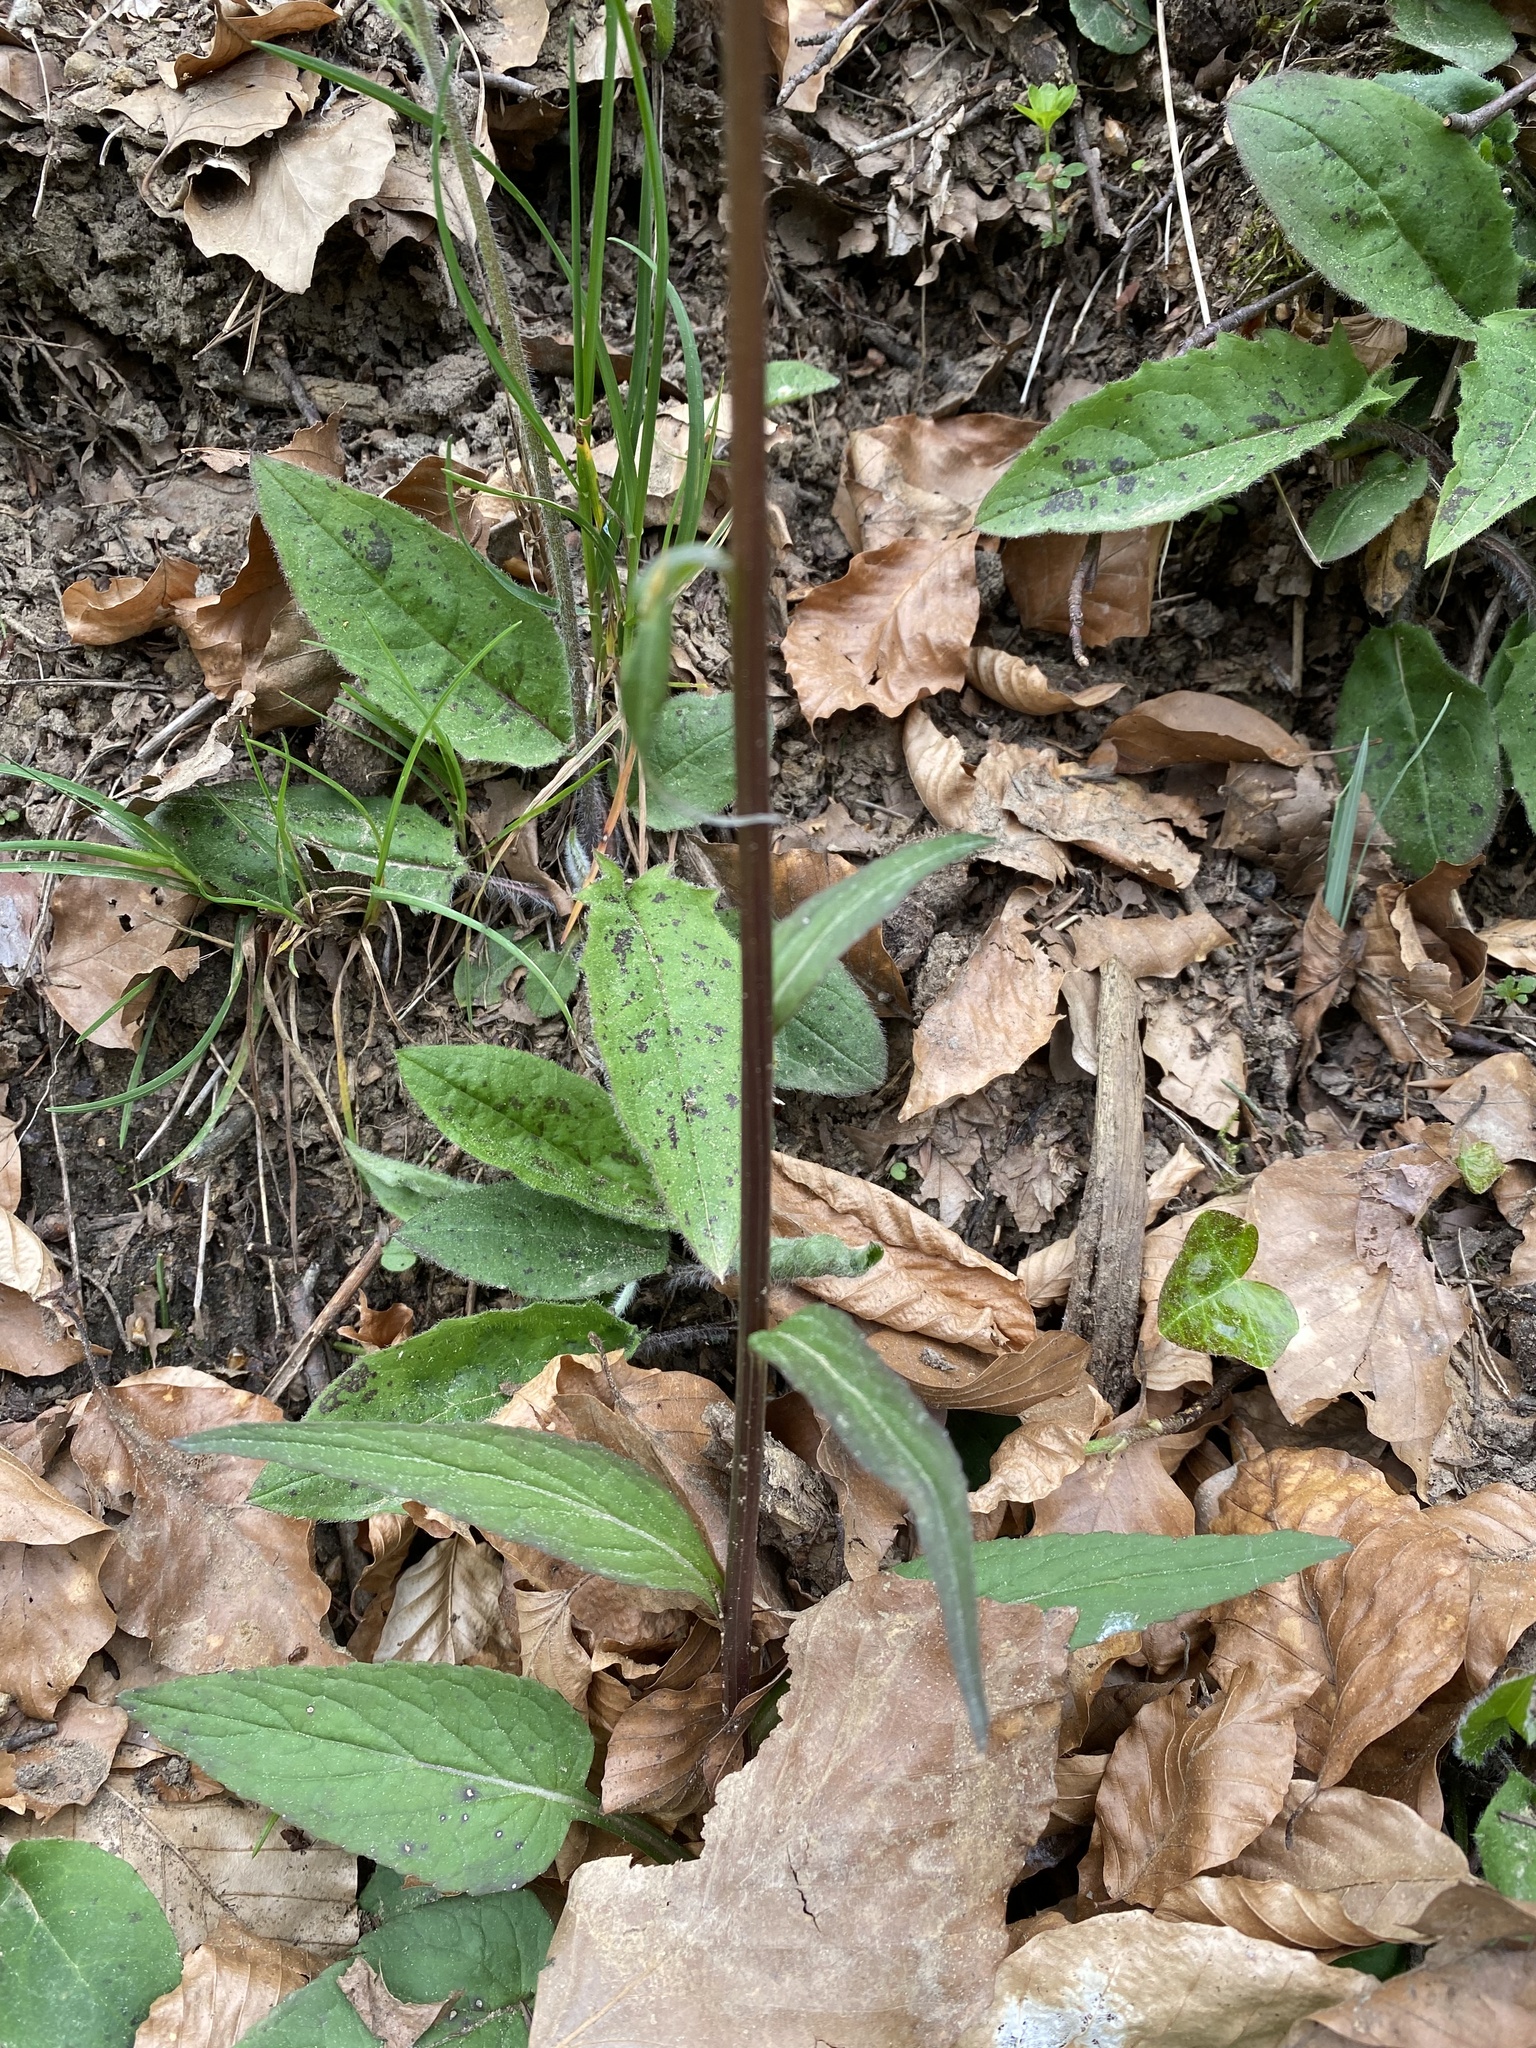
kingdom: Plantae
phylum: Tracheophyta
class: Magnoliopsida
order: Asterales
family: Campanulaceae
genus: Phyteuma
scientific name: Phyteuma nigrum
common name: Black rampion
